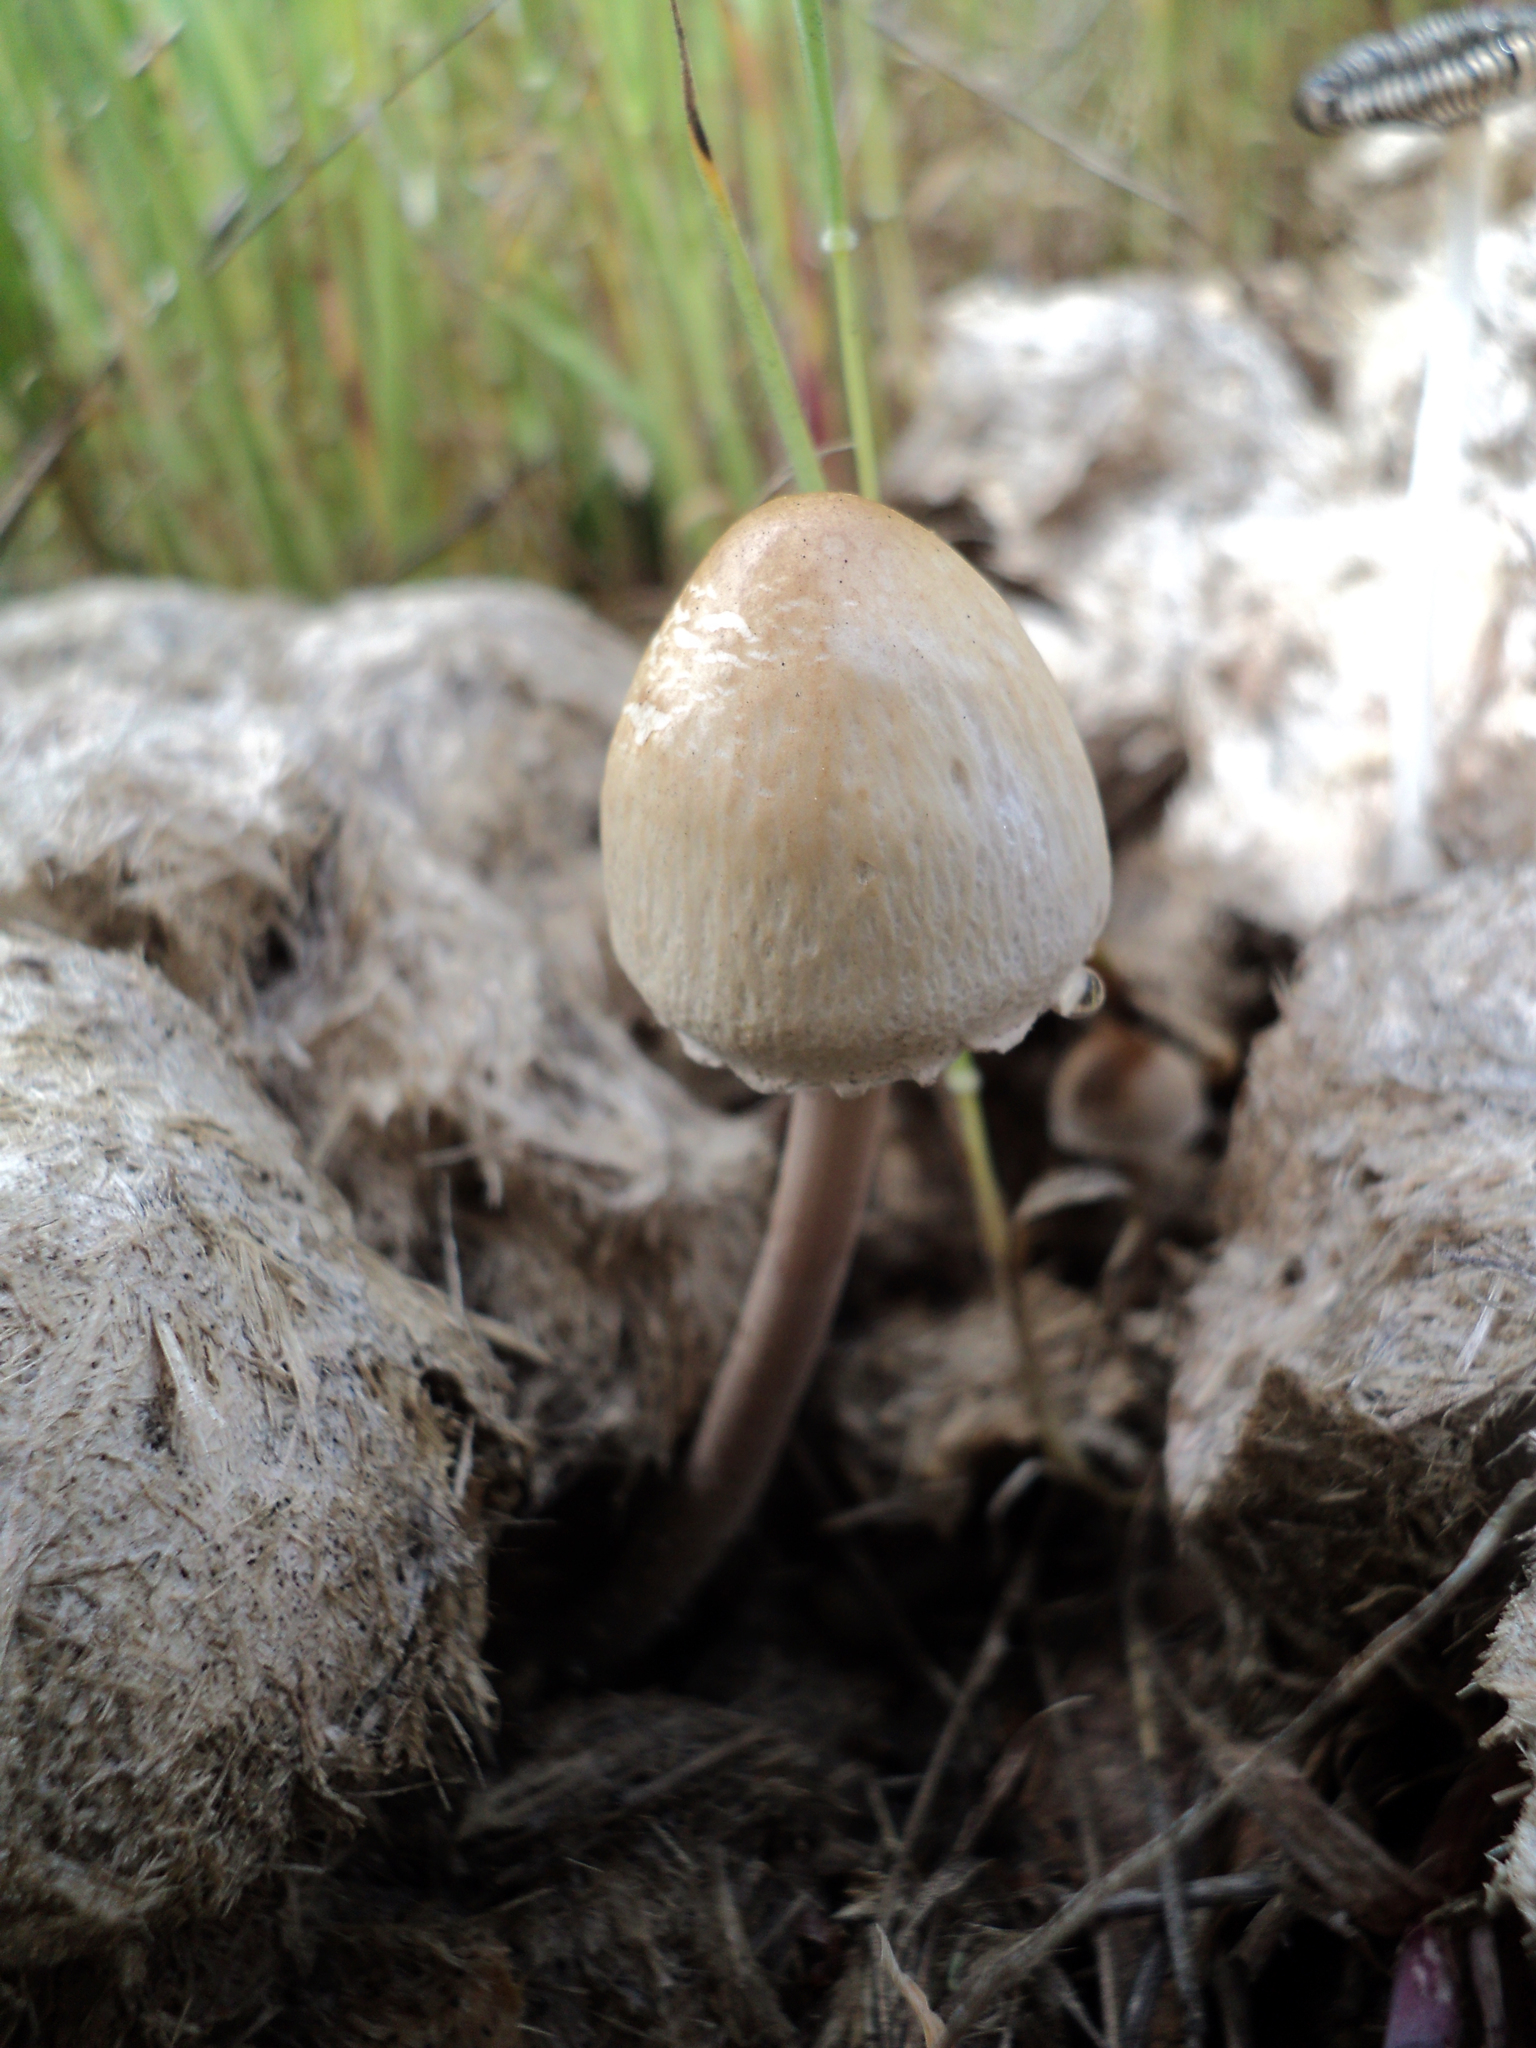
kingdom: Fungi
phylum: Basidiomycota
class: Agaricomycetes
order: Agaricales
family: Bolbitiaceae
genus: Panaeolus
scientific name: Panaeolus papilionaceus
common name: Petticoat mottlegill
